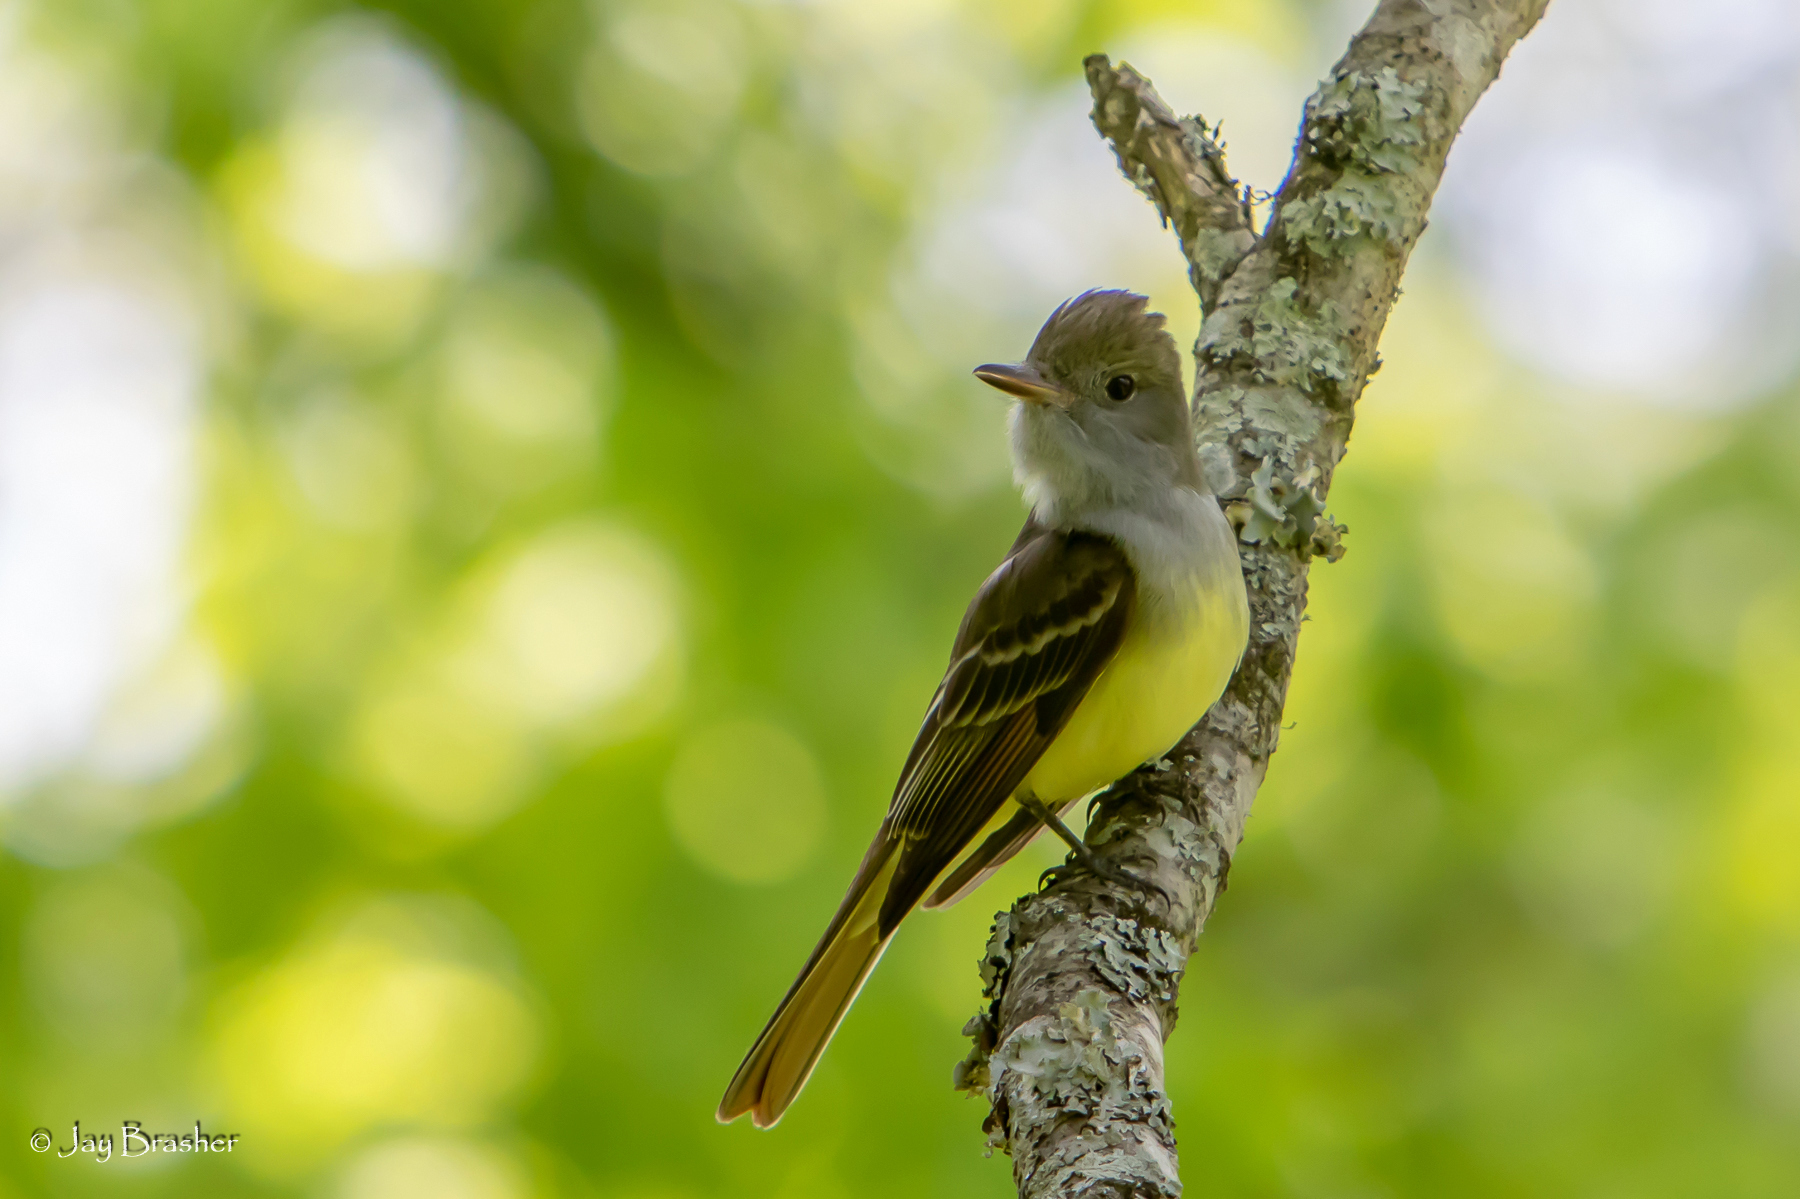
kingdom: Animalia
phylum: Chordata
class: Aves
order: Passeriformes
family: Tyrannidae
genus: Myiarchus
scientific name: Myiarchus crinitus
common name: Great crested flycatcher
